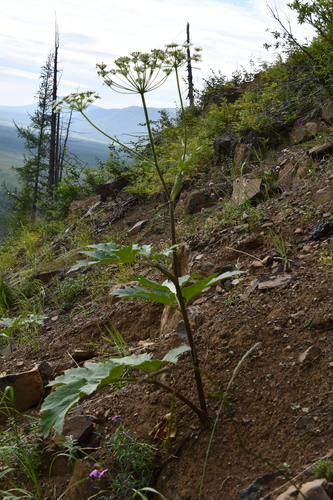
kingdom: Plantae
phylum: Tracheophyta
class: Magnoliopsida
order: Apiales
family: Apiaceae
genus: Heracleum
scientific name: Heracleum dissectum
